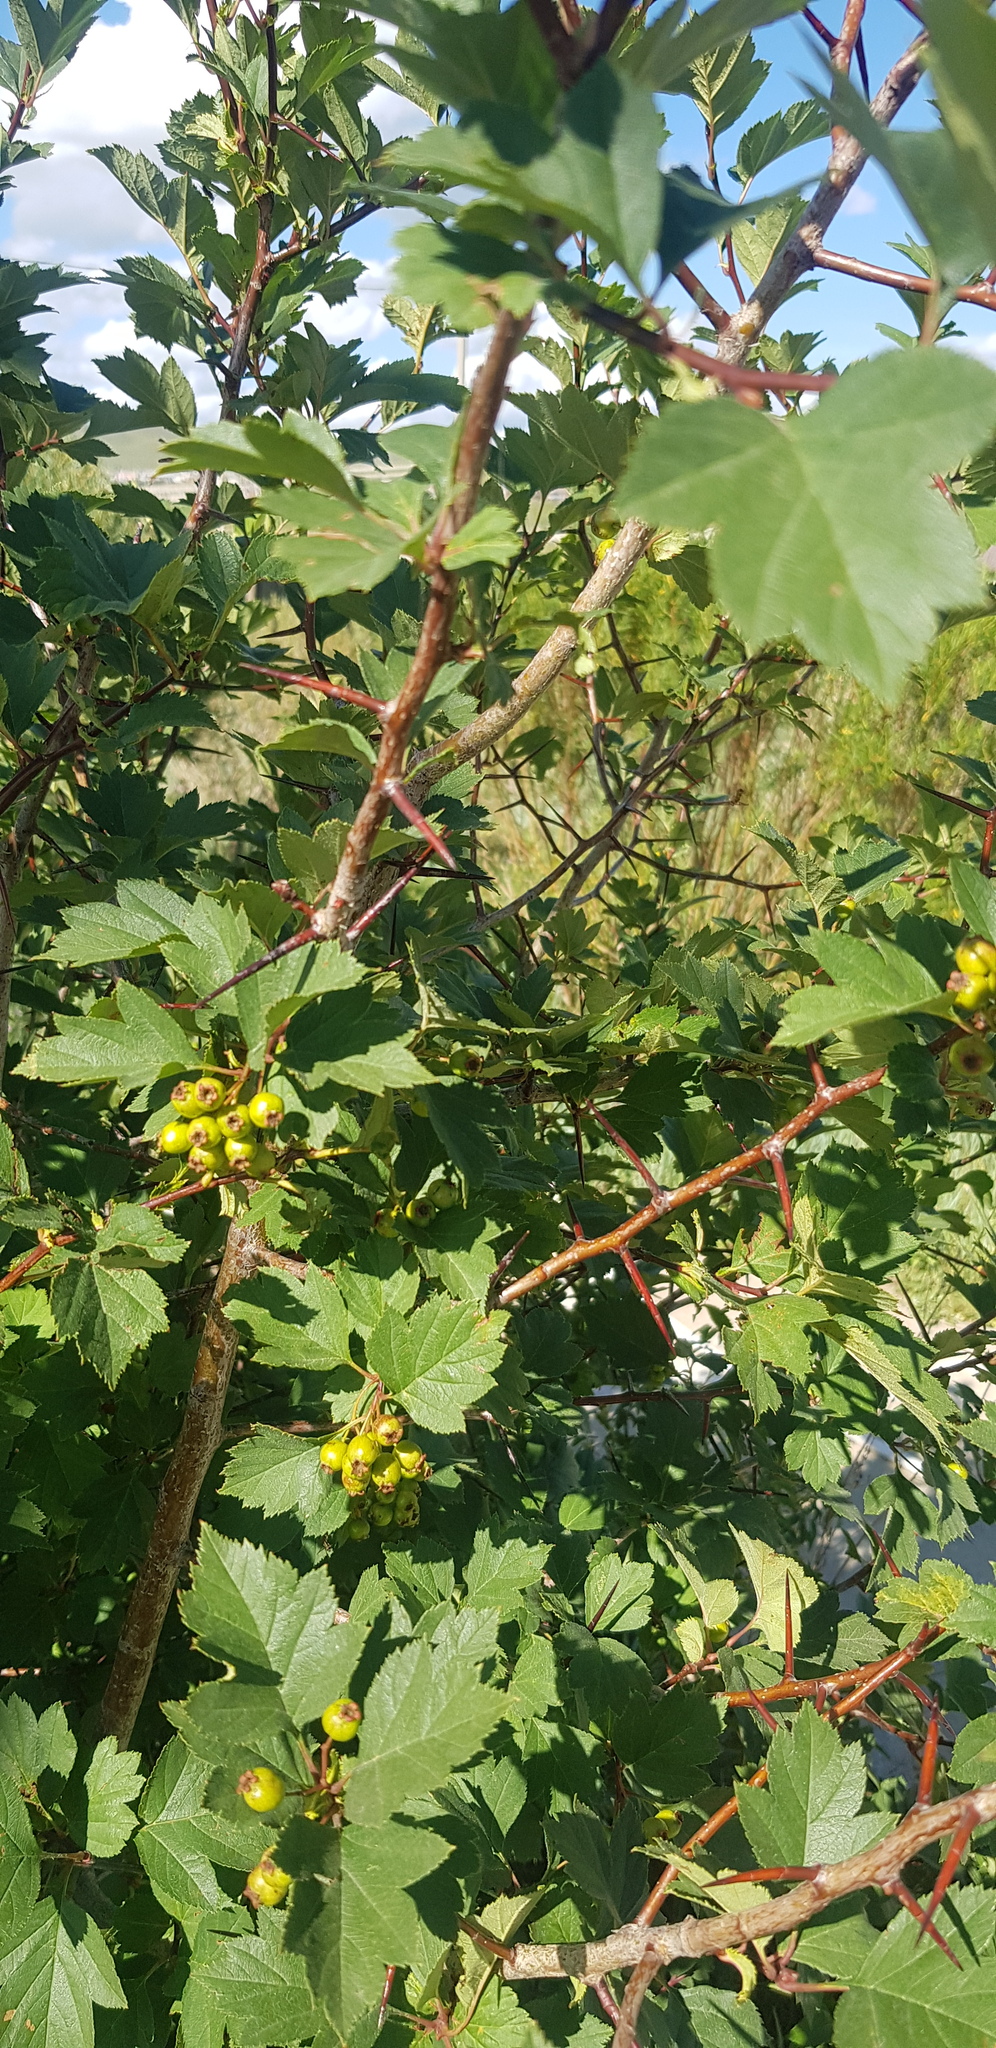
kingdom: Plantae
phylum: Tracheophyta
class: Magnoliopsida
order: Rosales
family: Rosaceae
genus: Crataegus
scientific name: Crataegus sanguinea
